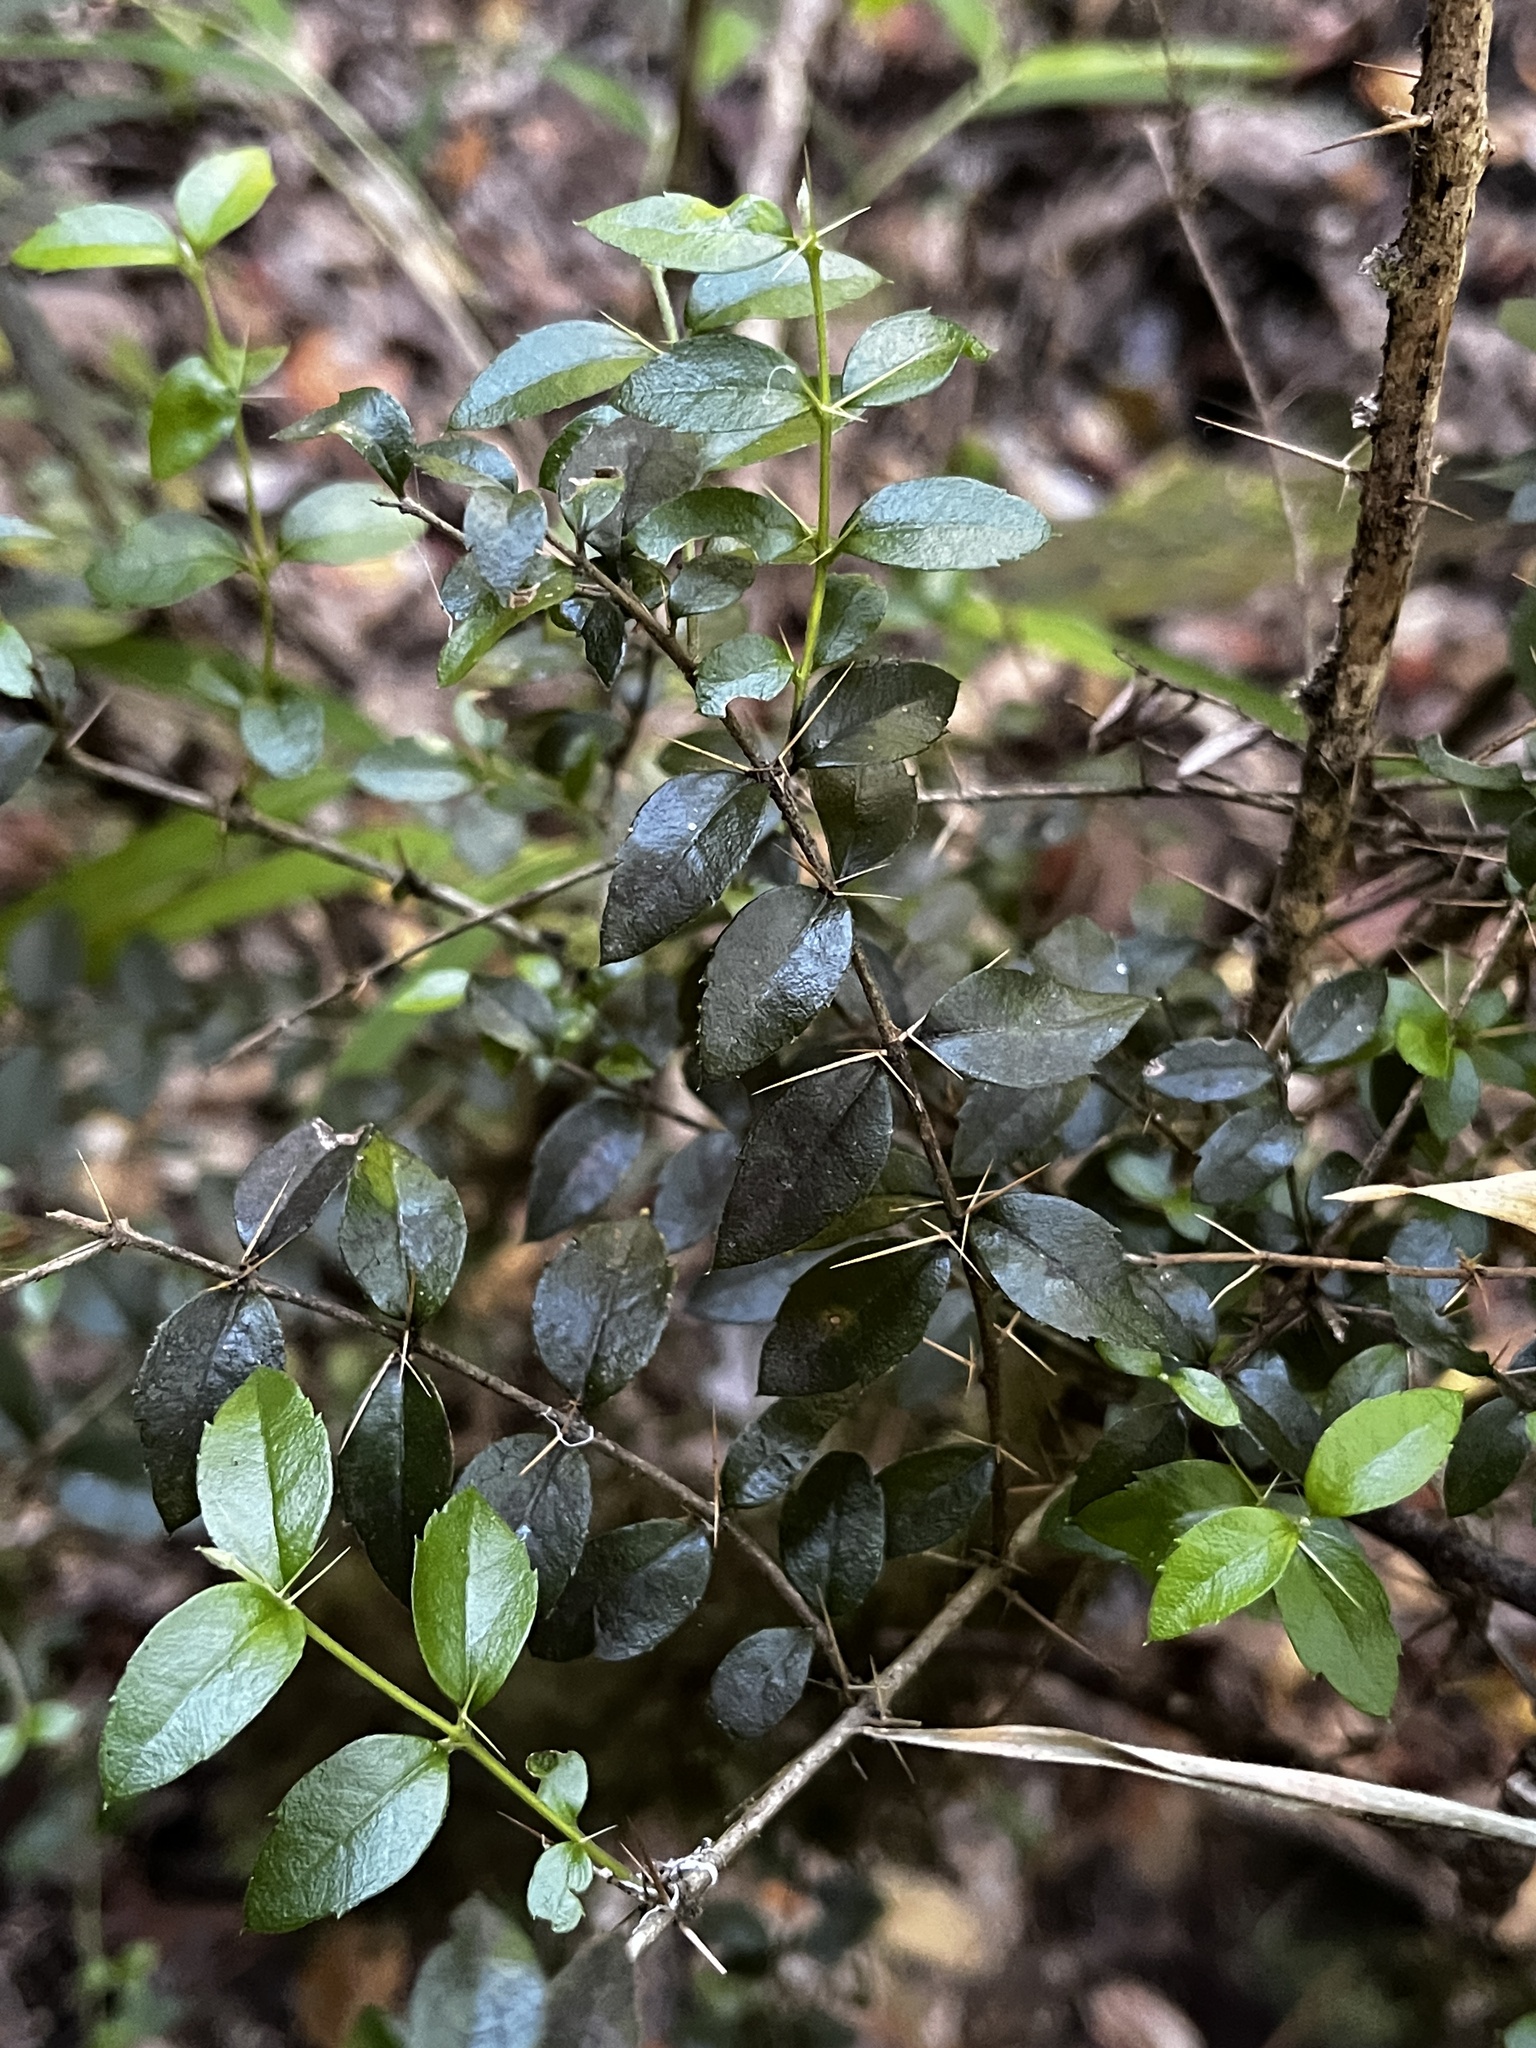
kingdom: Plantae
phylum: Tracheophyta
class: Magnoliopsida
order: Lamiales
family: Verbenaceae
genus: Rhaphithamnus
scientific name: Rhaphithamnus spinosus
